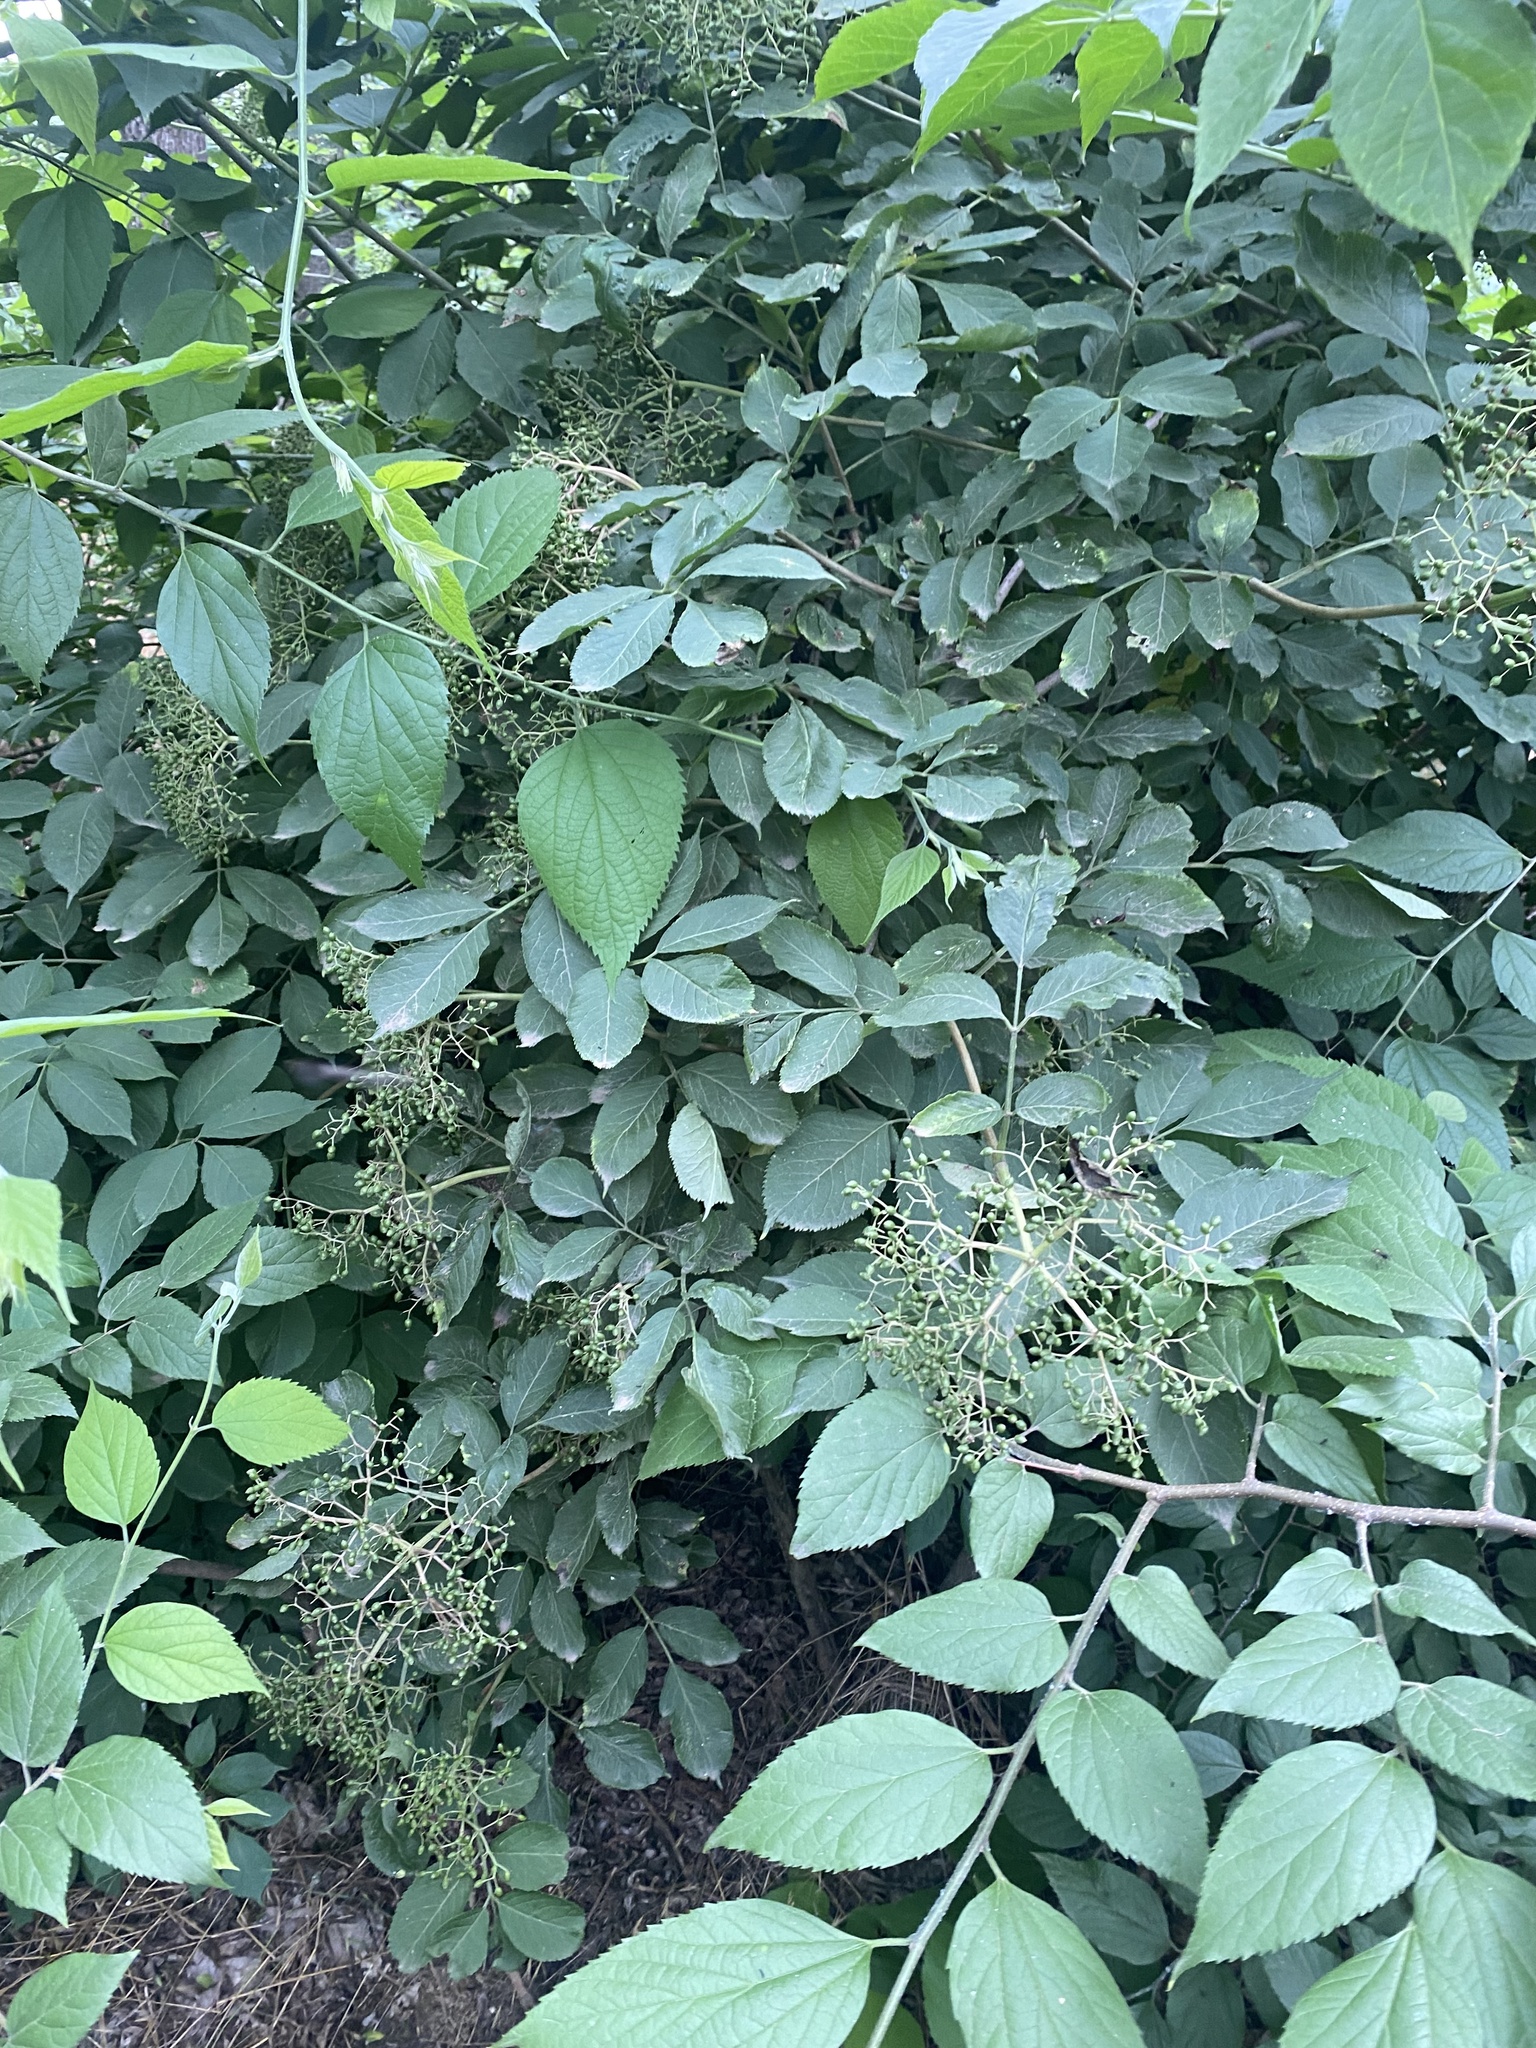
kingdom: Plantae
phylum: Tracheophyta
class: Magnoliopsida
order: Dipsacales
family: Viburnaceae
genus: Sambucus
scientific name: Sambucus nigra
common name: Elder
